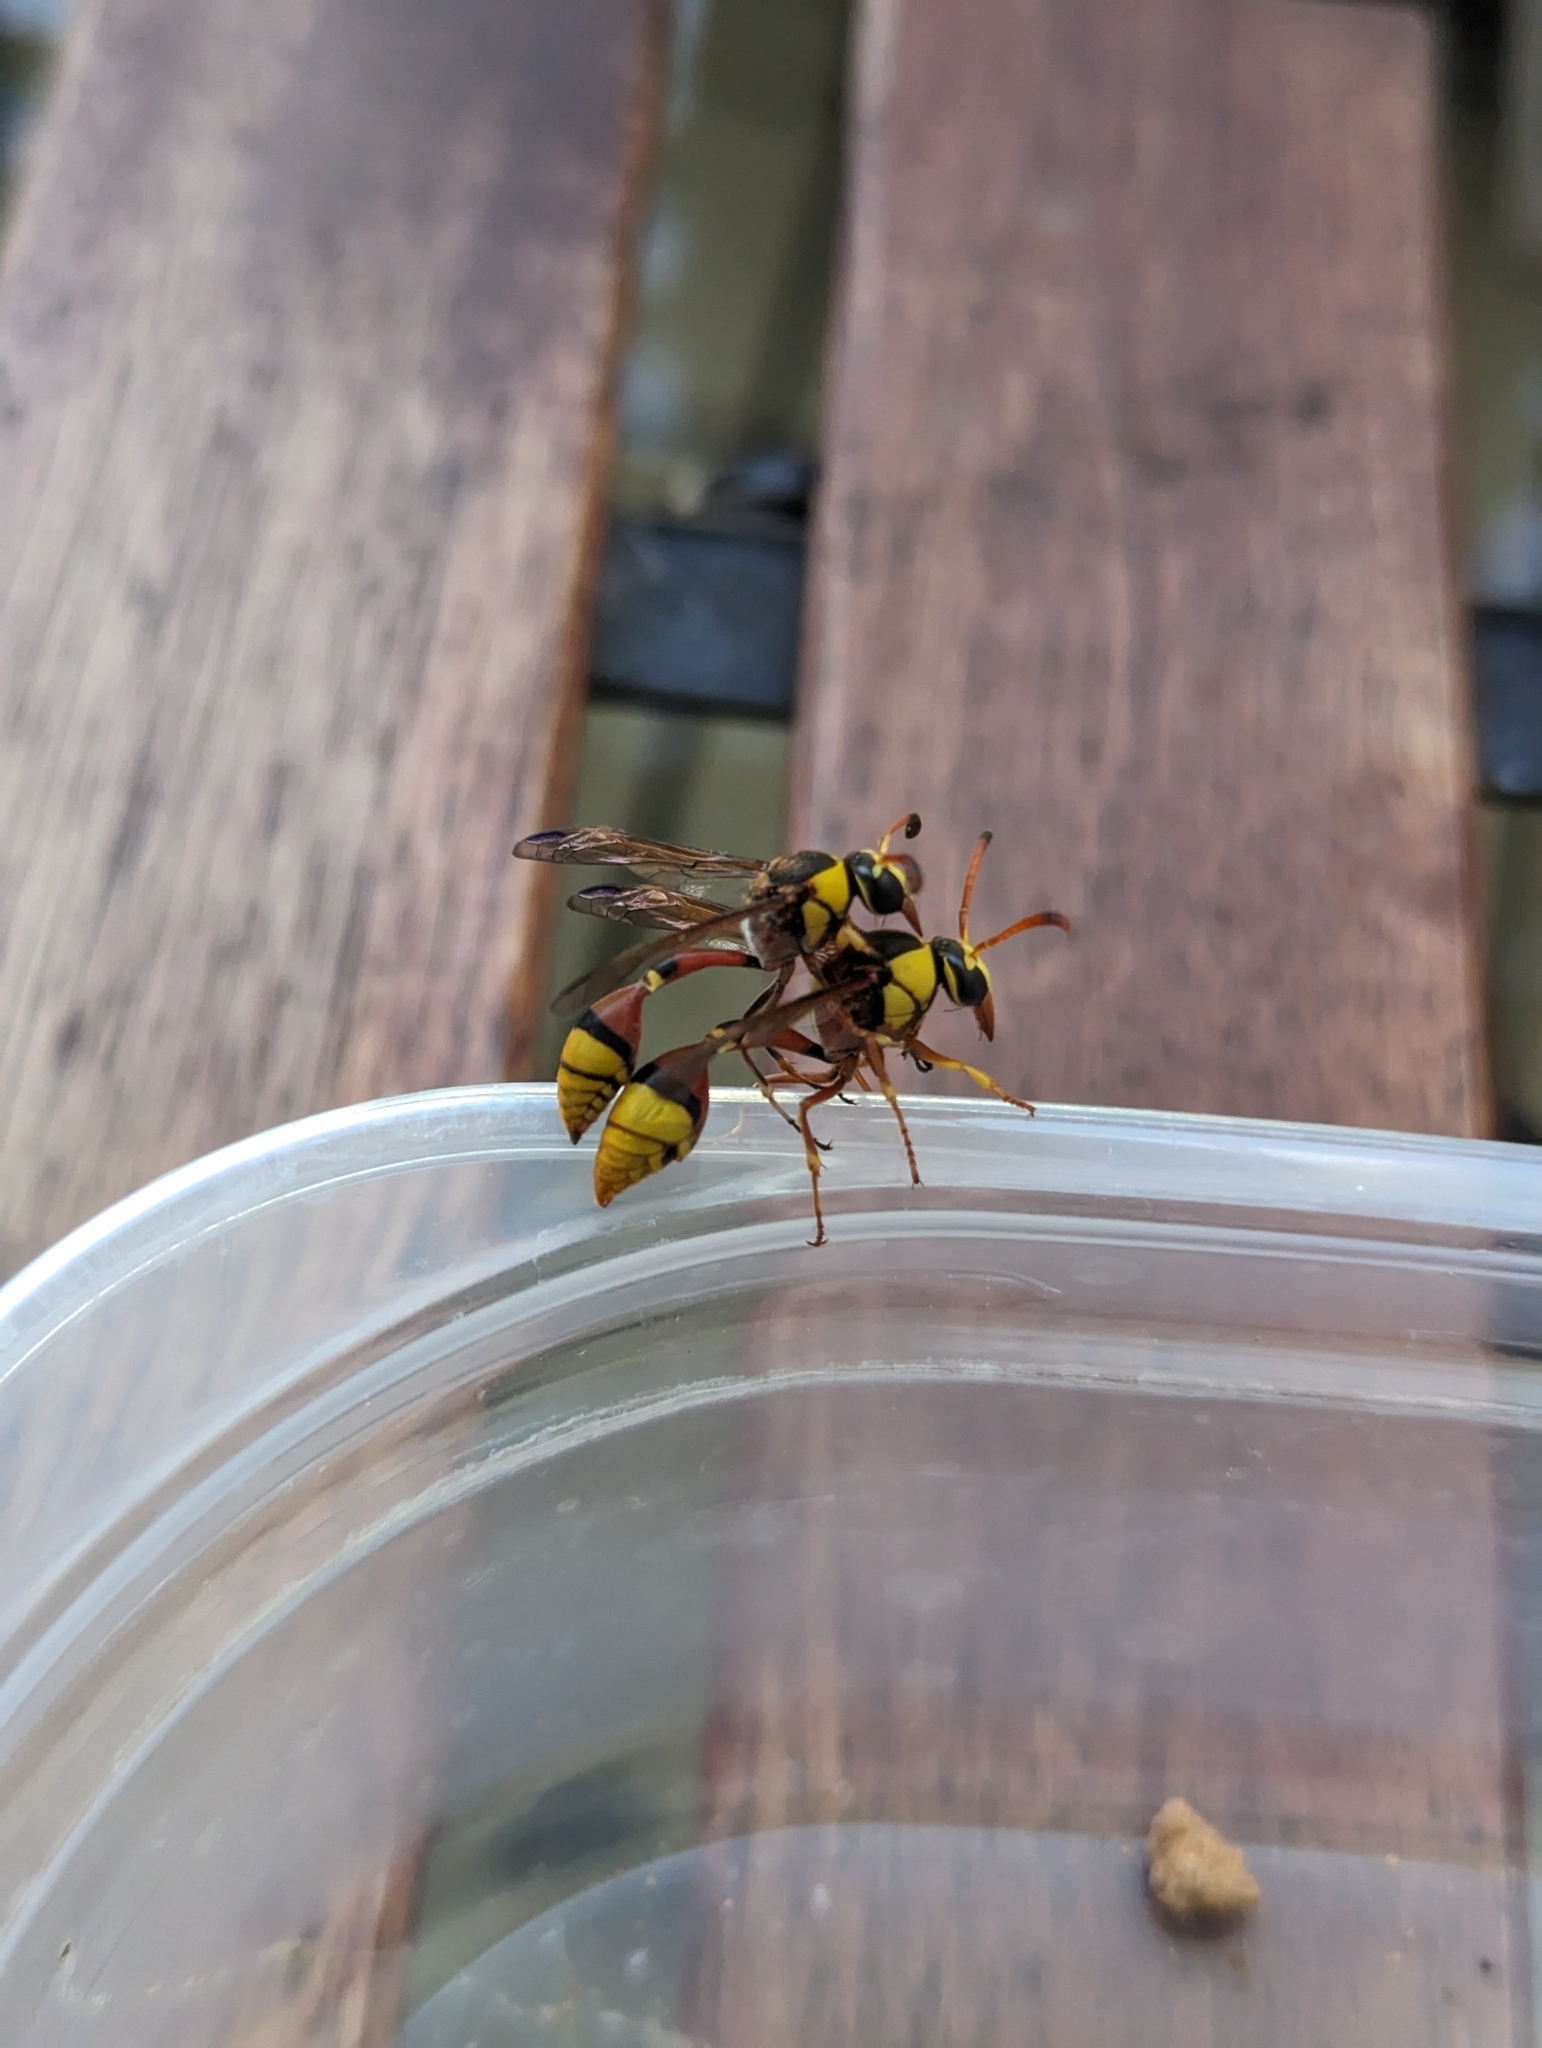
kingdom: Animalia
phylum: Arthropoda
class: Insecta
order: Hymenoptera
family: Eumenidae
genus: Delta
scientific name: Delta esuriens
